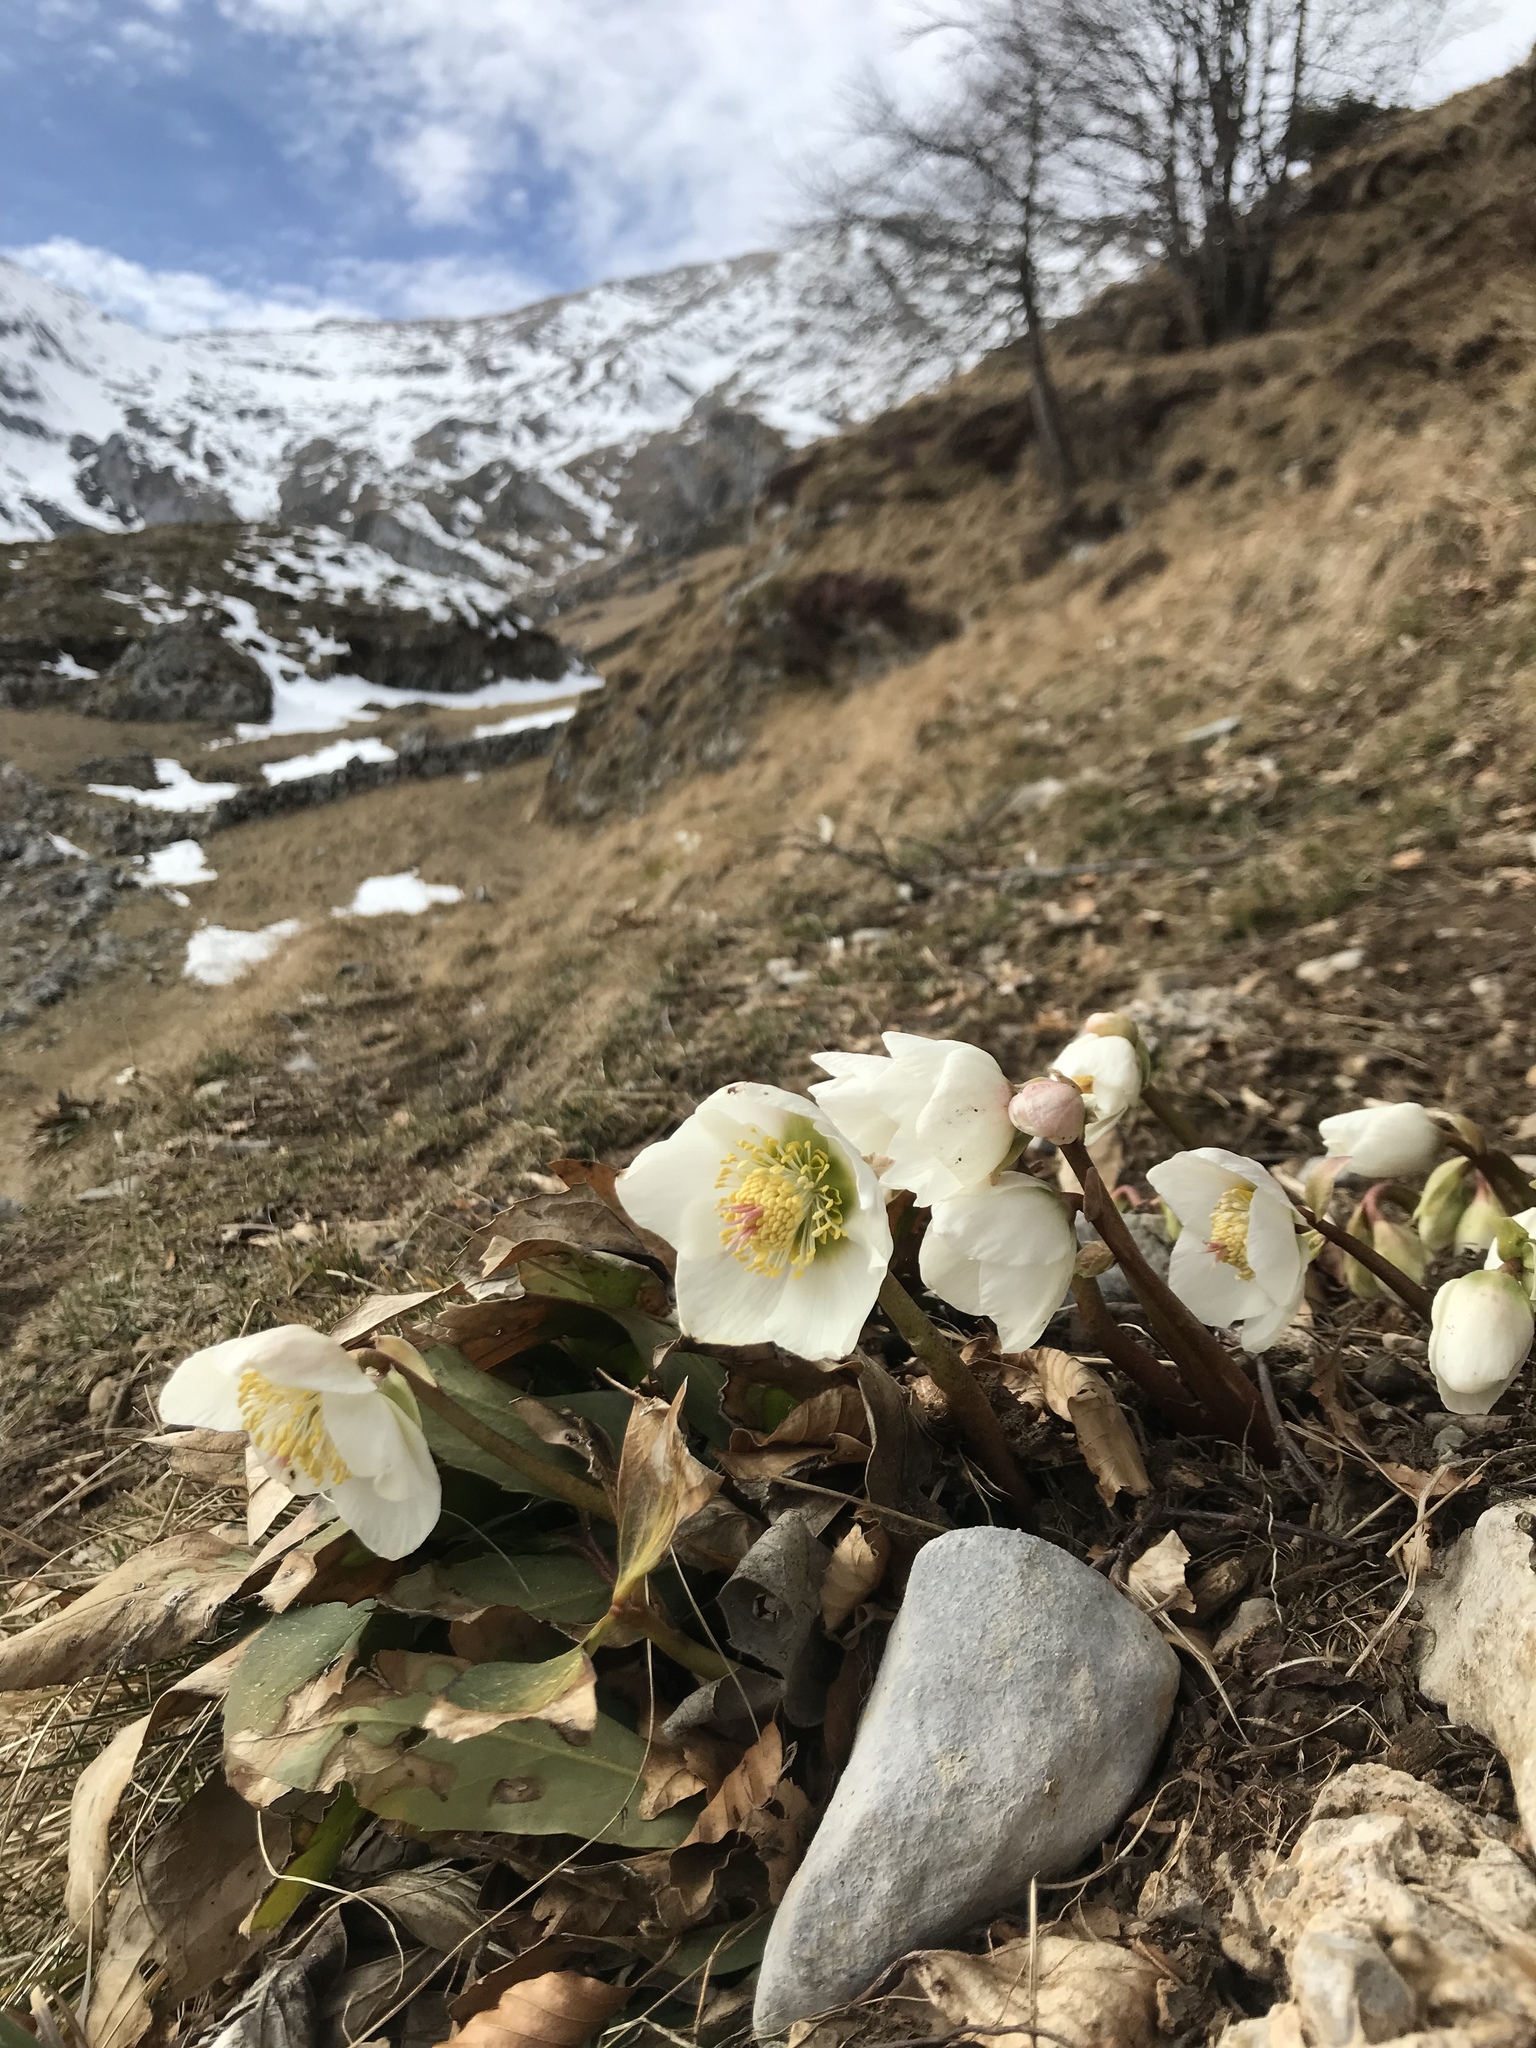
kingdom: Plantae
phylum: Tracheophyta
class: Magnoliopsida
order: Ranunculales
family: Ranunculaceae
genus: Helleborus
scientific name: Helleborus niger
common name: Black hellebore
